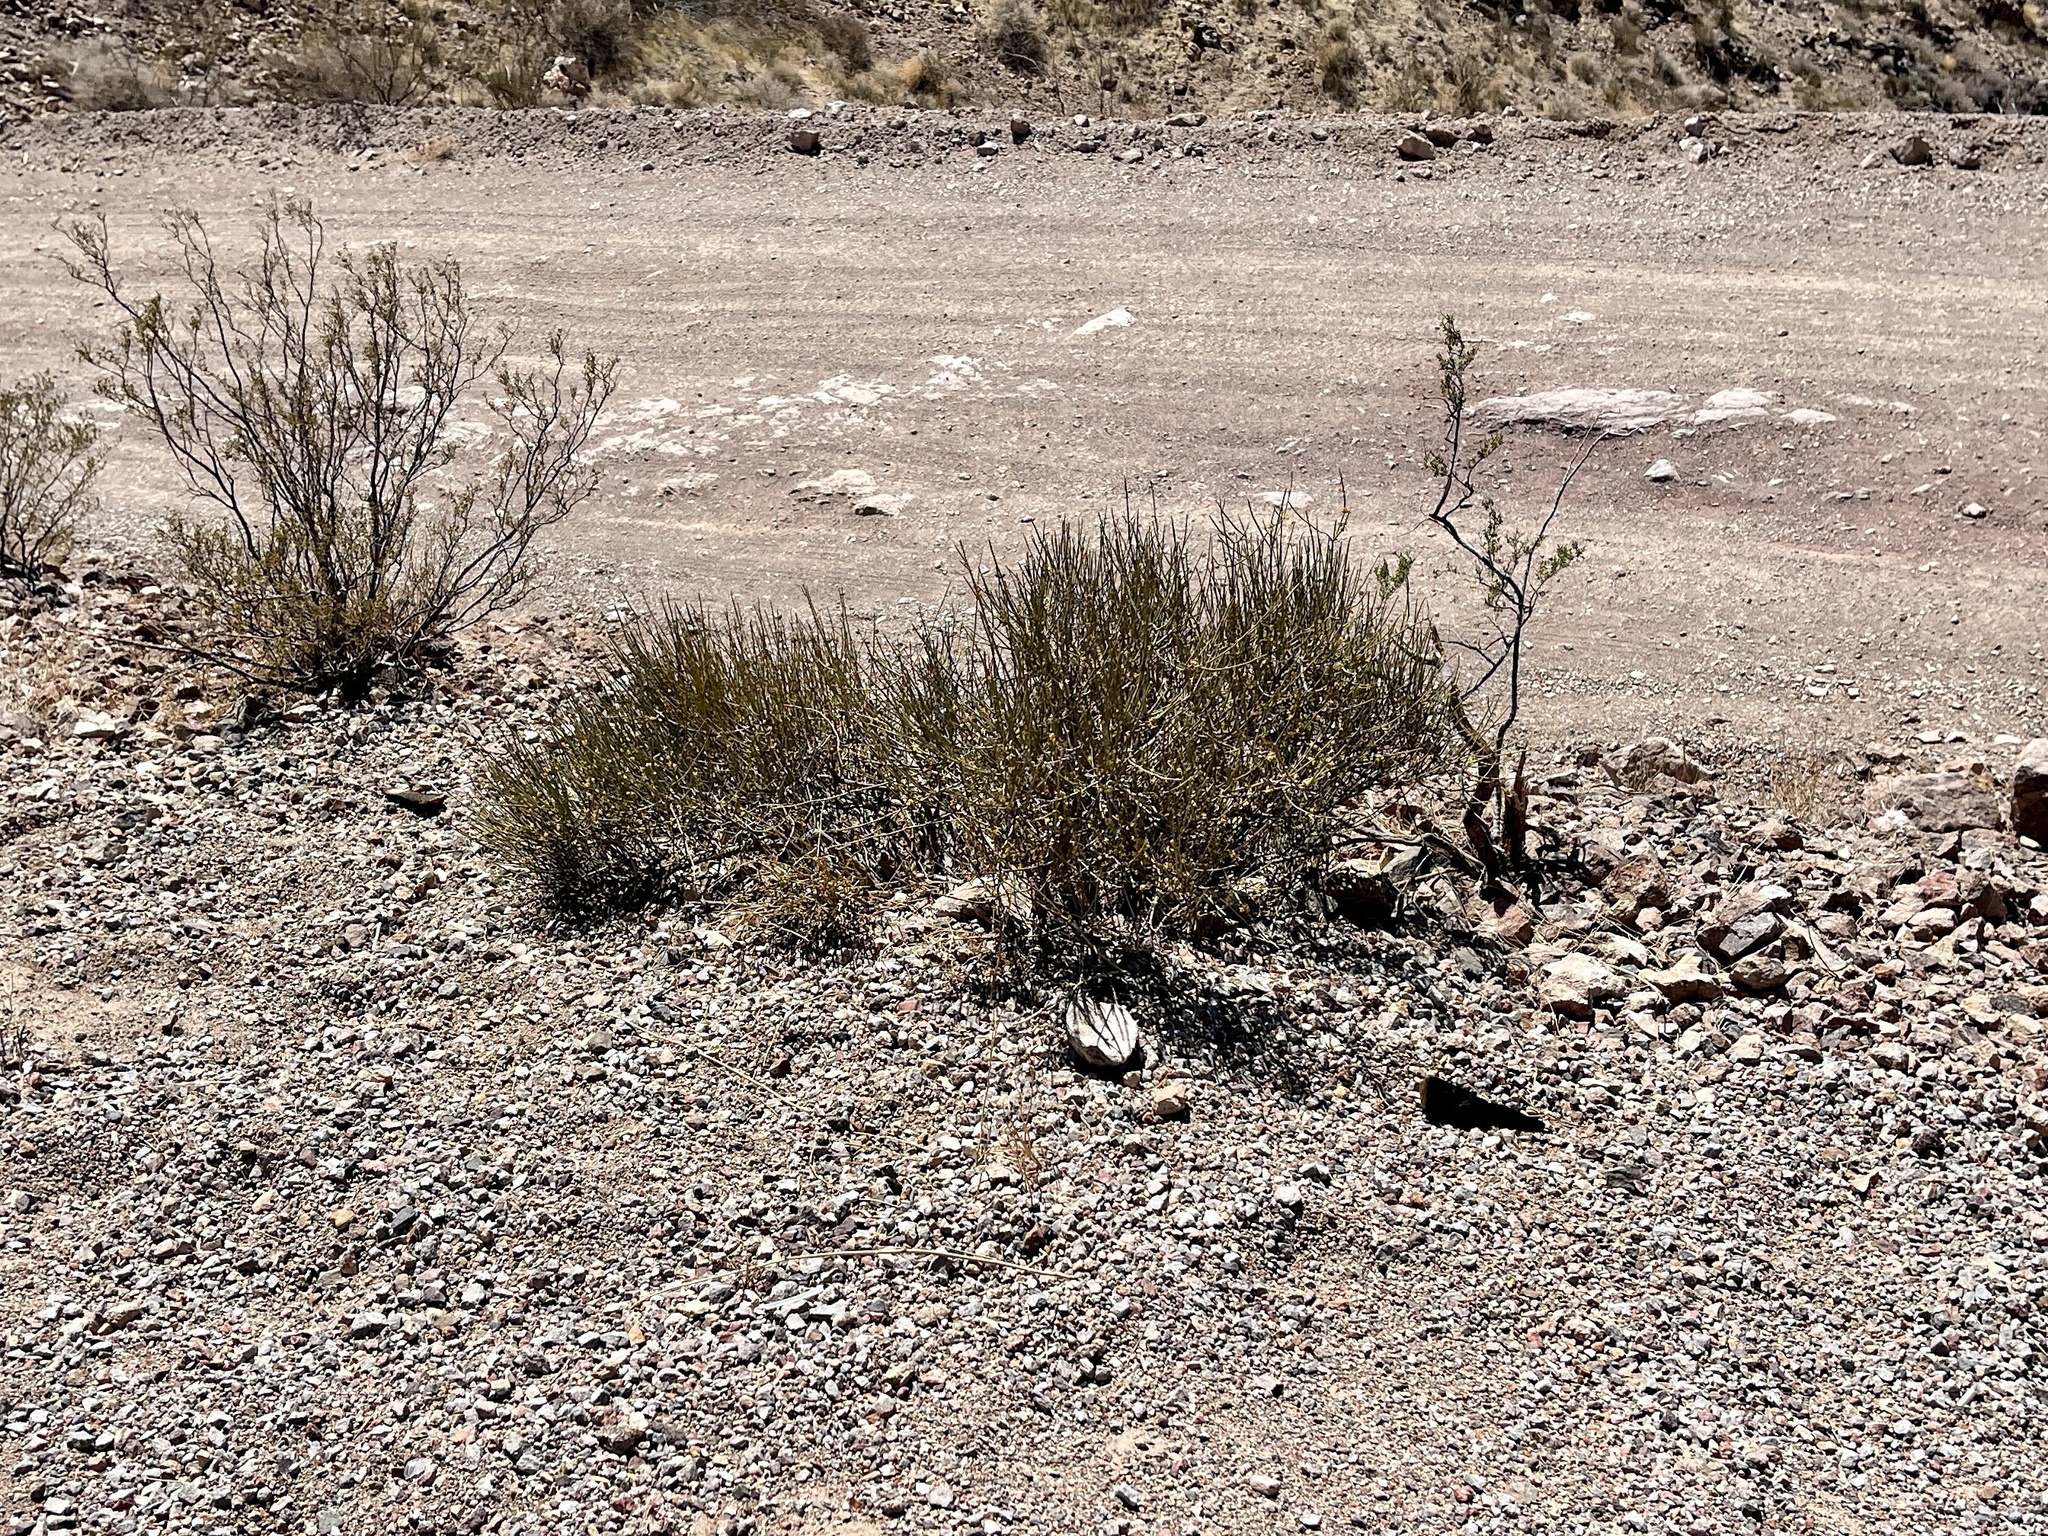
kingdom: Plantae
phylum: Tracheophyta
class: Gnetopsida
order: Ephedrales
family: Ephedraceae
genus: Ephedra
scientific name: Ephedra nevadensis
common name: Gray ephedra
